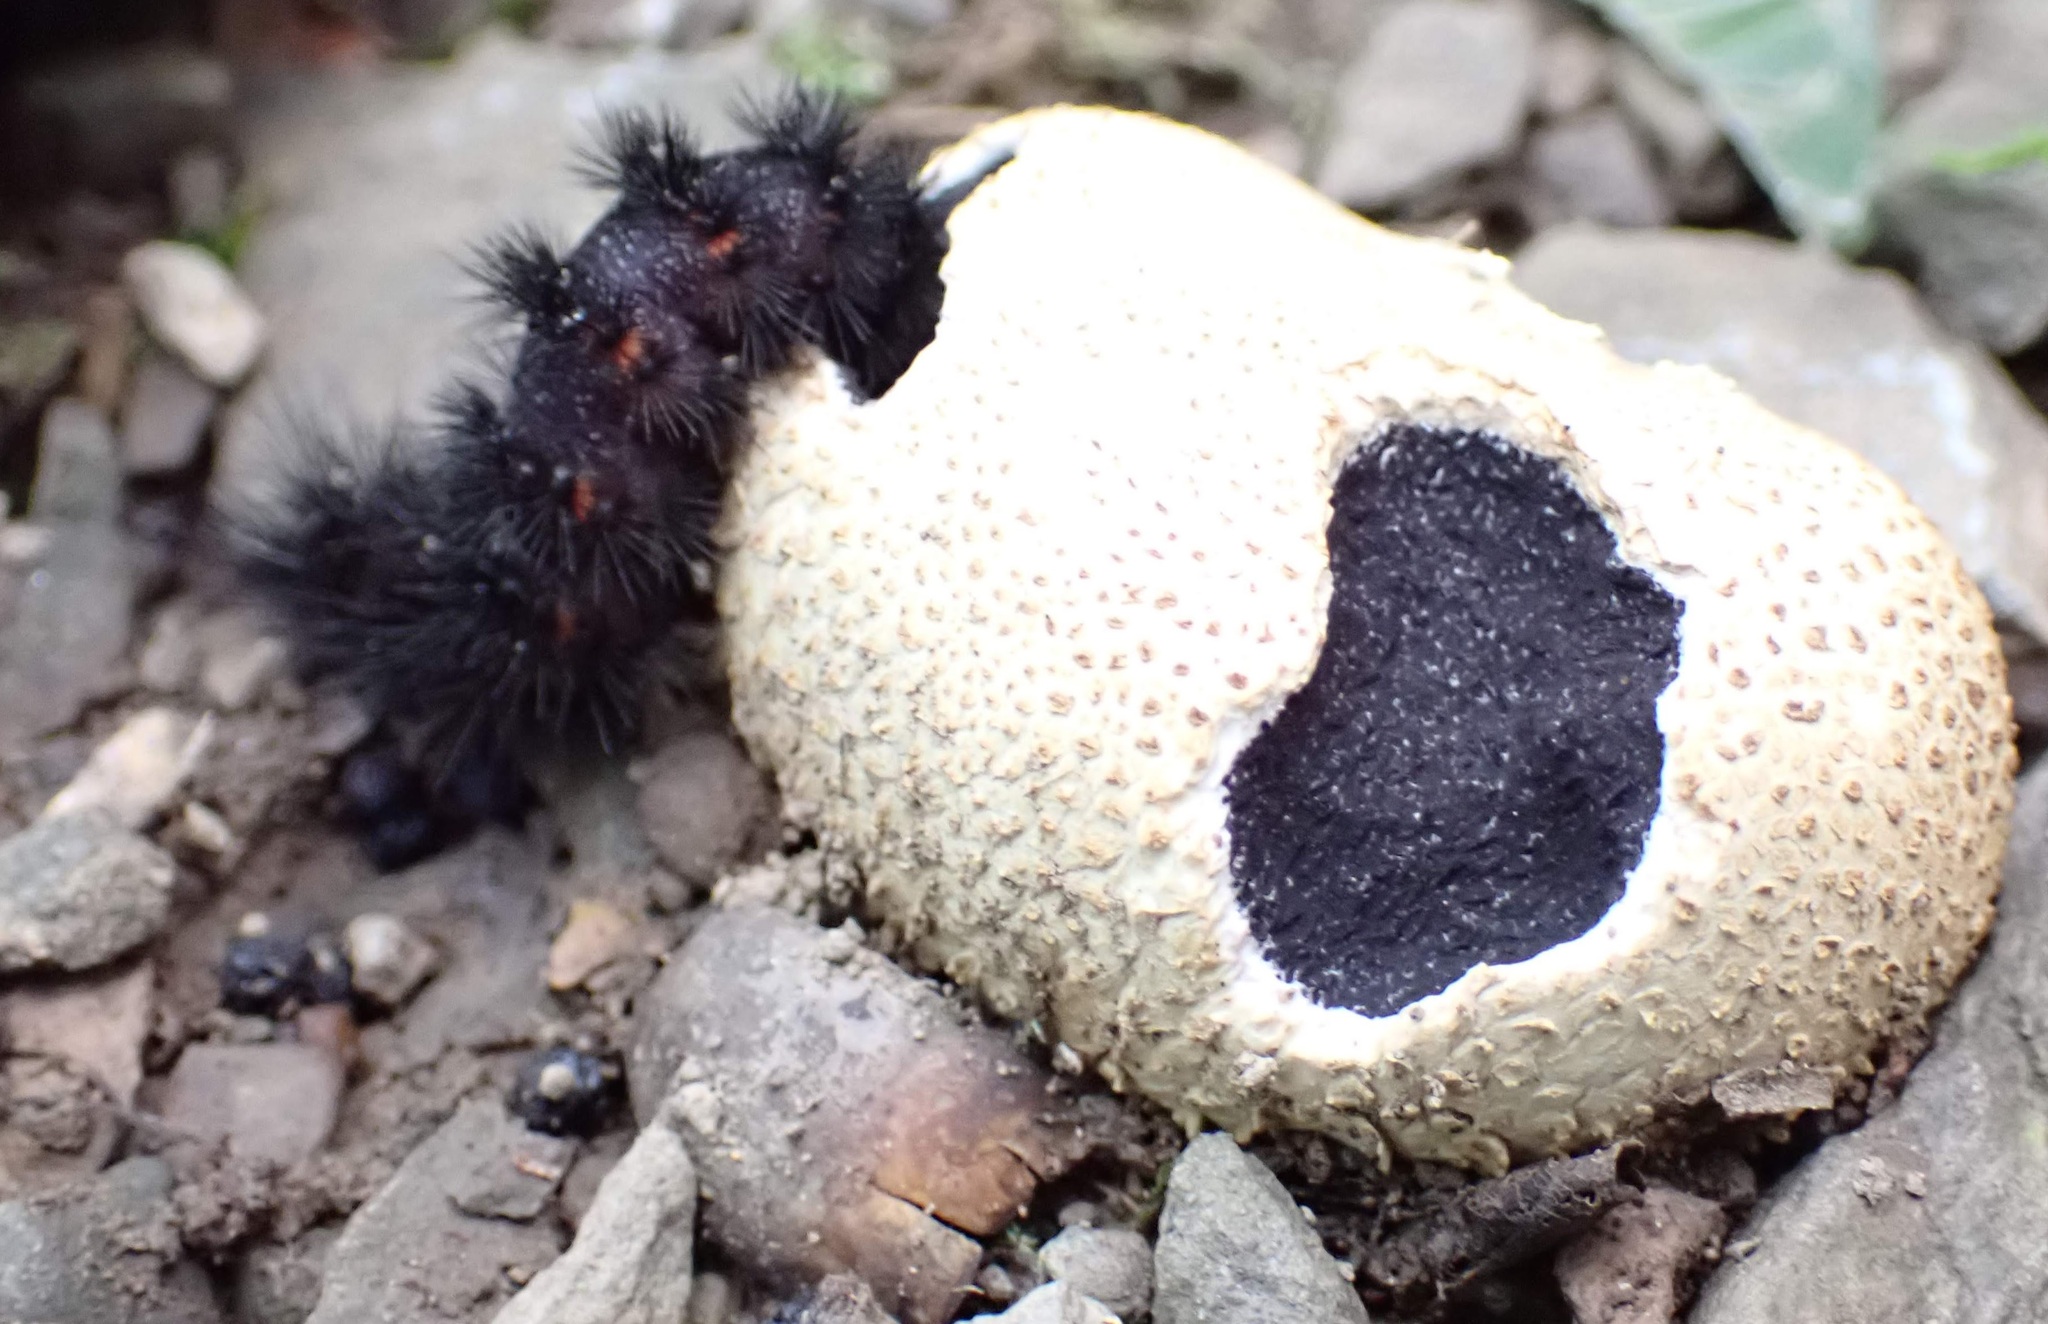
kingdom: Fungi
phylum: Basidiomycota
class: Agaricomycetes
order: Boletales
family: Sclerodermataceae
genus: Scleroderma
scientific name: Scleroderma citrinum
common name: Common earthball
